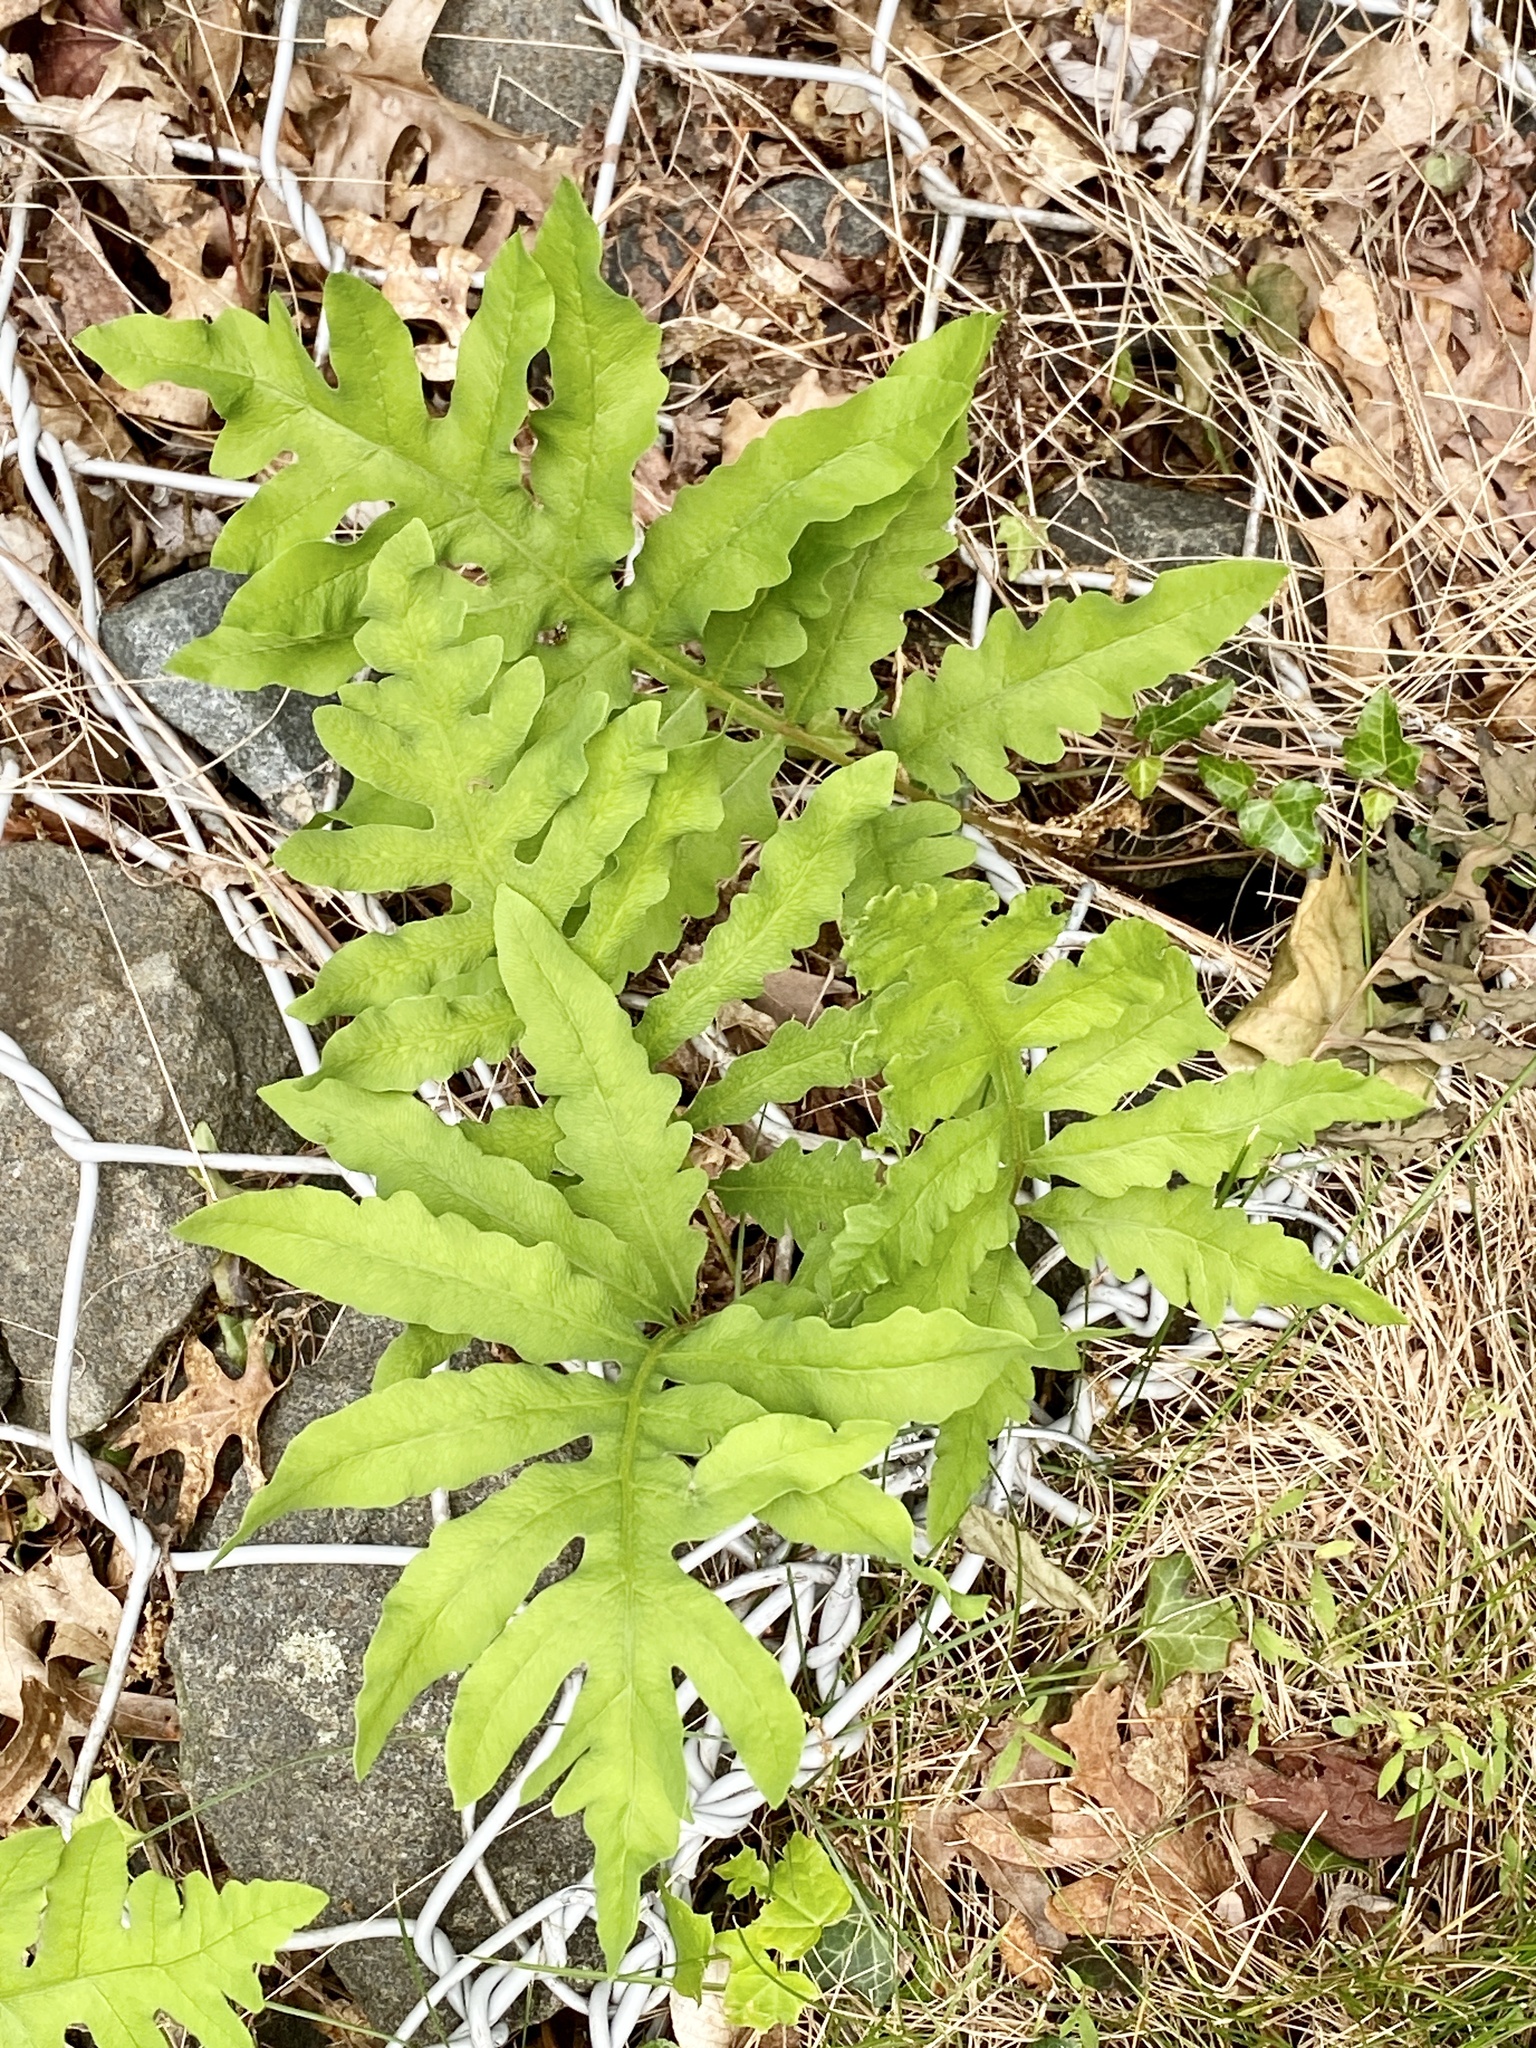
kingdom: Plantae
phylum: Tracheophyta
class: Polypodiopsida
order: Polypodiales
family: Onocleaceae
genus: Onoclea
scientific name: Onoclea sensibilis
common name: Sensitive fern
